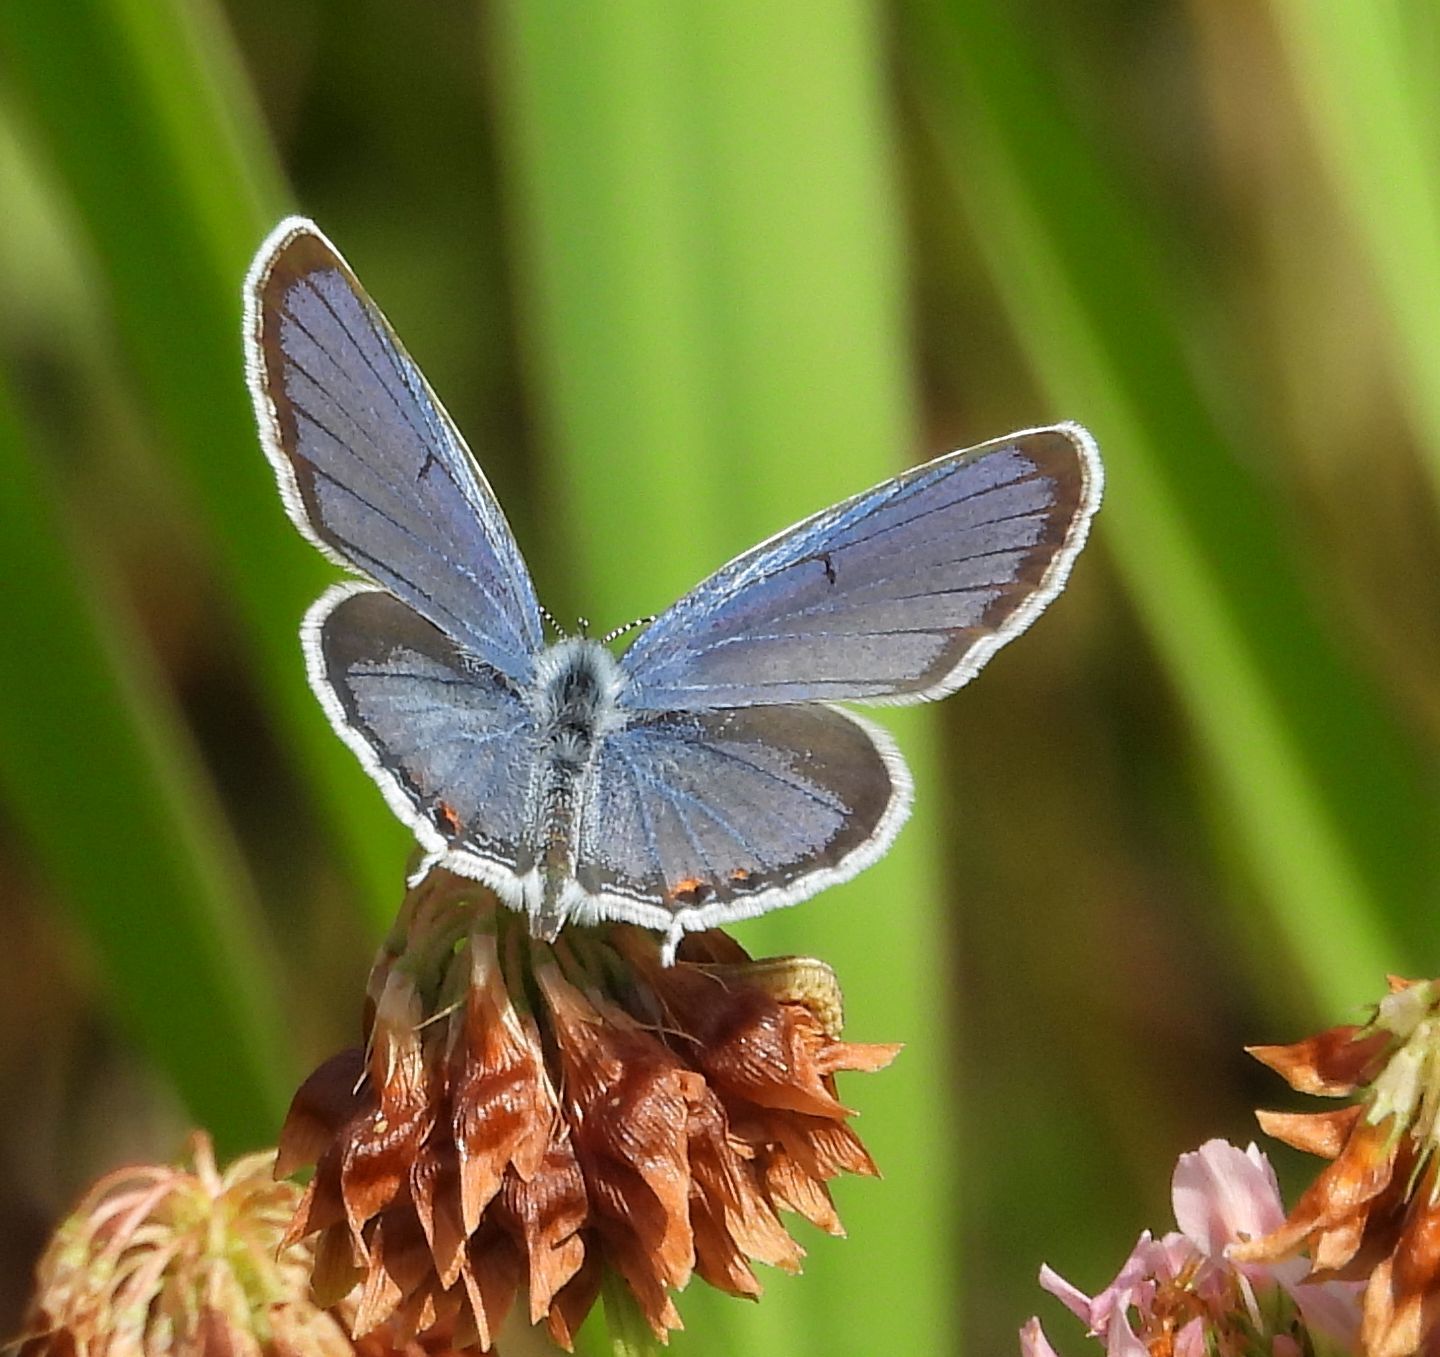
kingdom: Animalia
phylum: Arthropoda
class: Insecta
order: Lepidoptera
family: Lycaenidae
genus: Elkalyce
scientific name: Elkalyce comyntas
